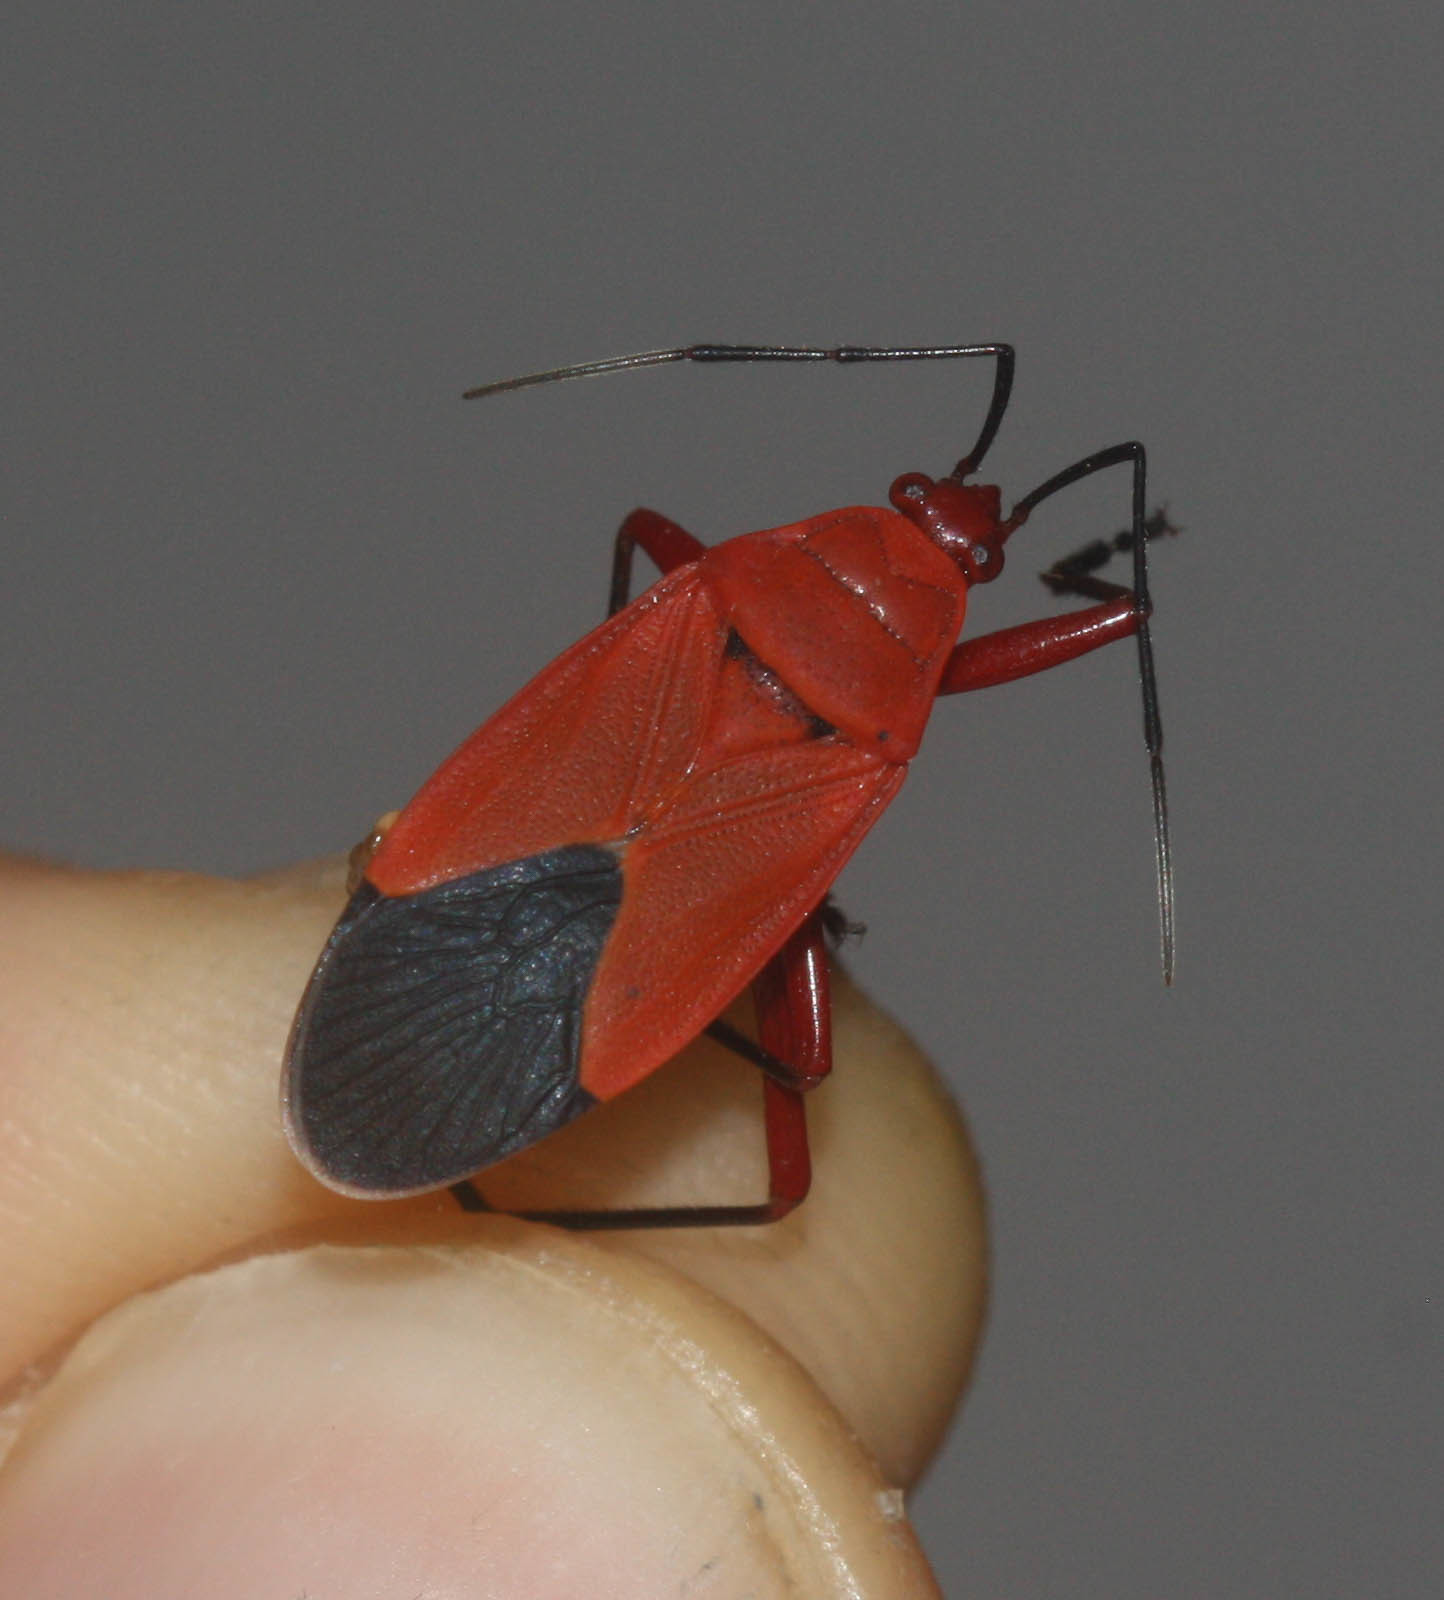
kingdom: Animalia
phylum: Arthropoda
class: Insecta
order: Hemiptera
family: Pyrrhocoridae
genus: Antilochus
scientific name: Antilochus coquebertii
